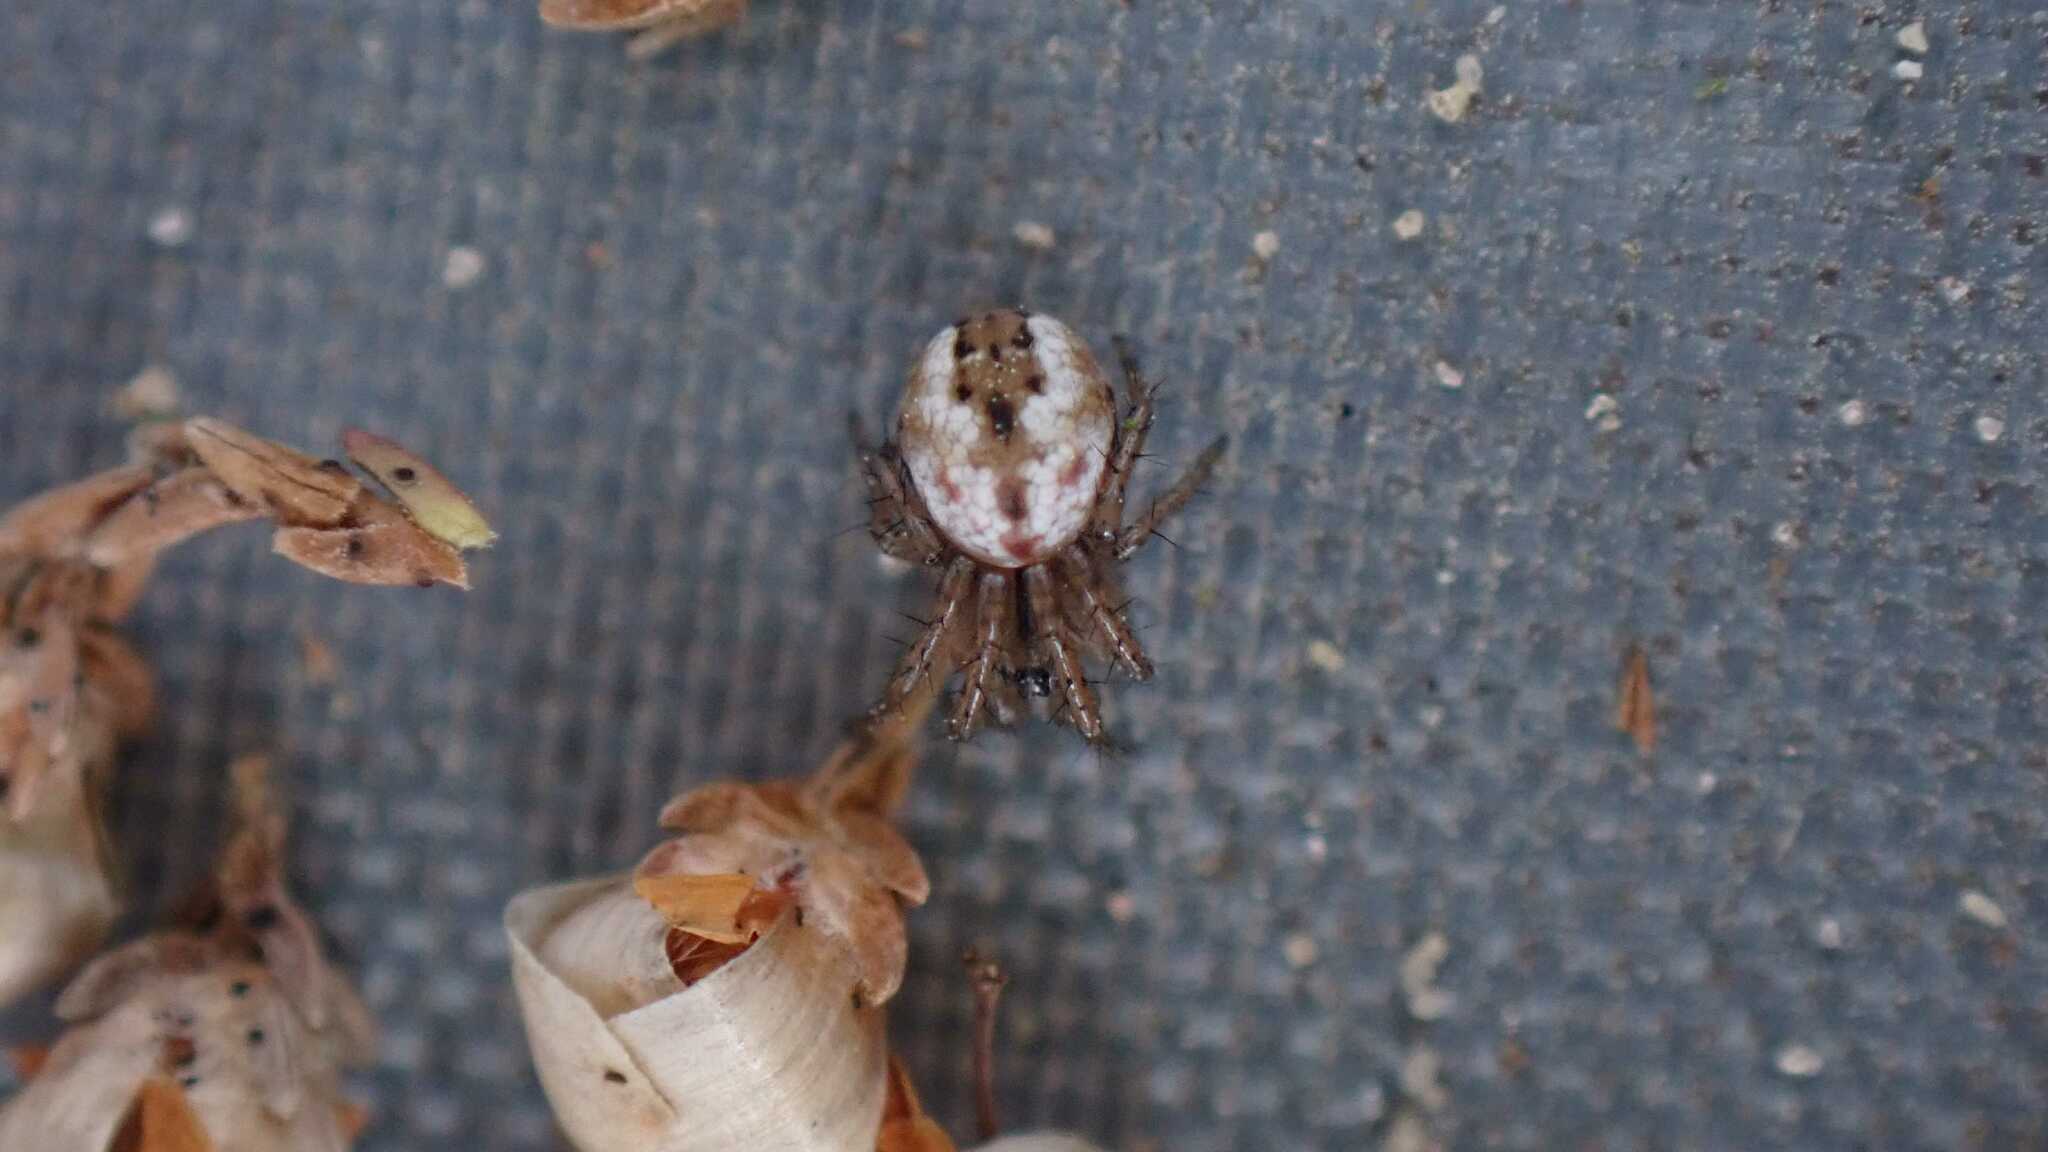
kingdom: Animalia
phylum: Arthropoda
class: Arachnida
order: Araneae
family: Araneidae
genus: Mangora
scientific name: Mangora acalypha
